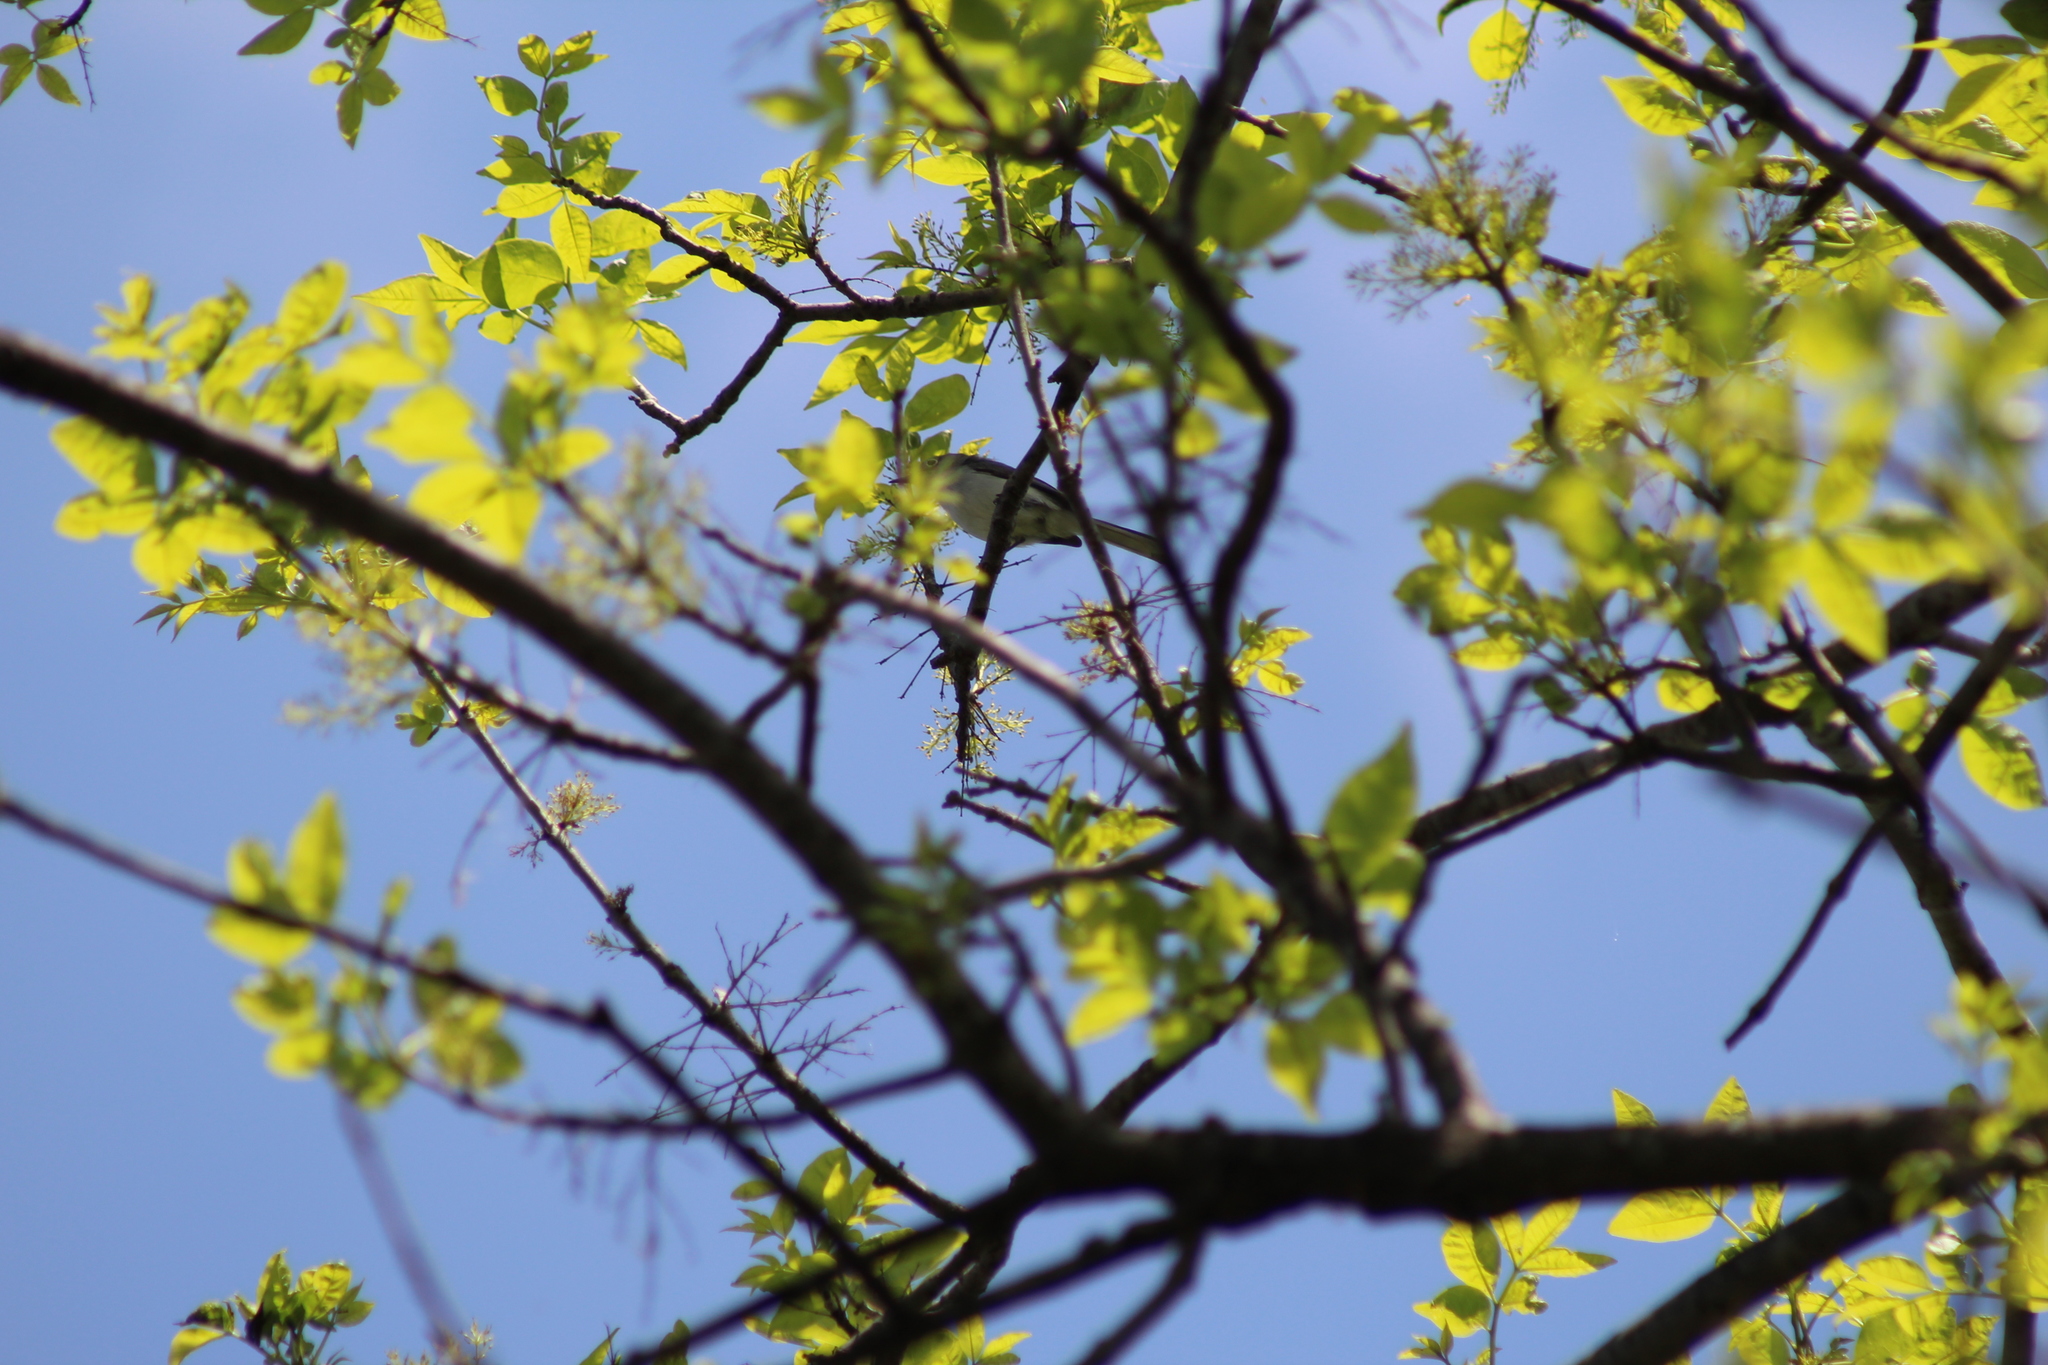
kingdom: Animalia
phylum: Chordata
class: Aves
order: Passeriformes
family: Polioptilidae
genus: Polioptila
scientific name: Polioptila caerulea
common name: Blue-gray gnatcatcher
